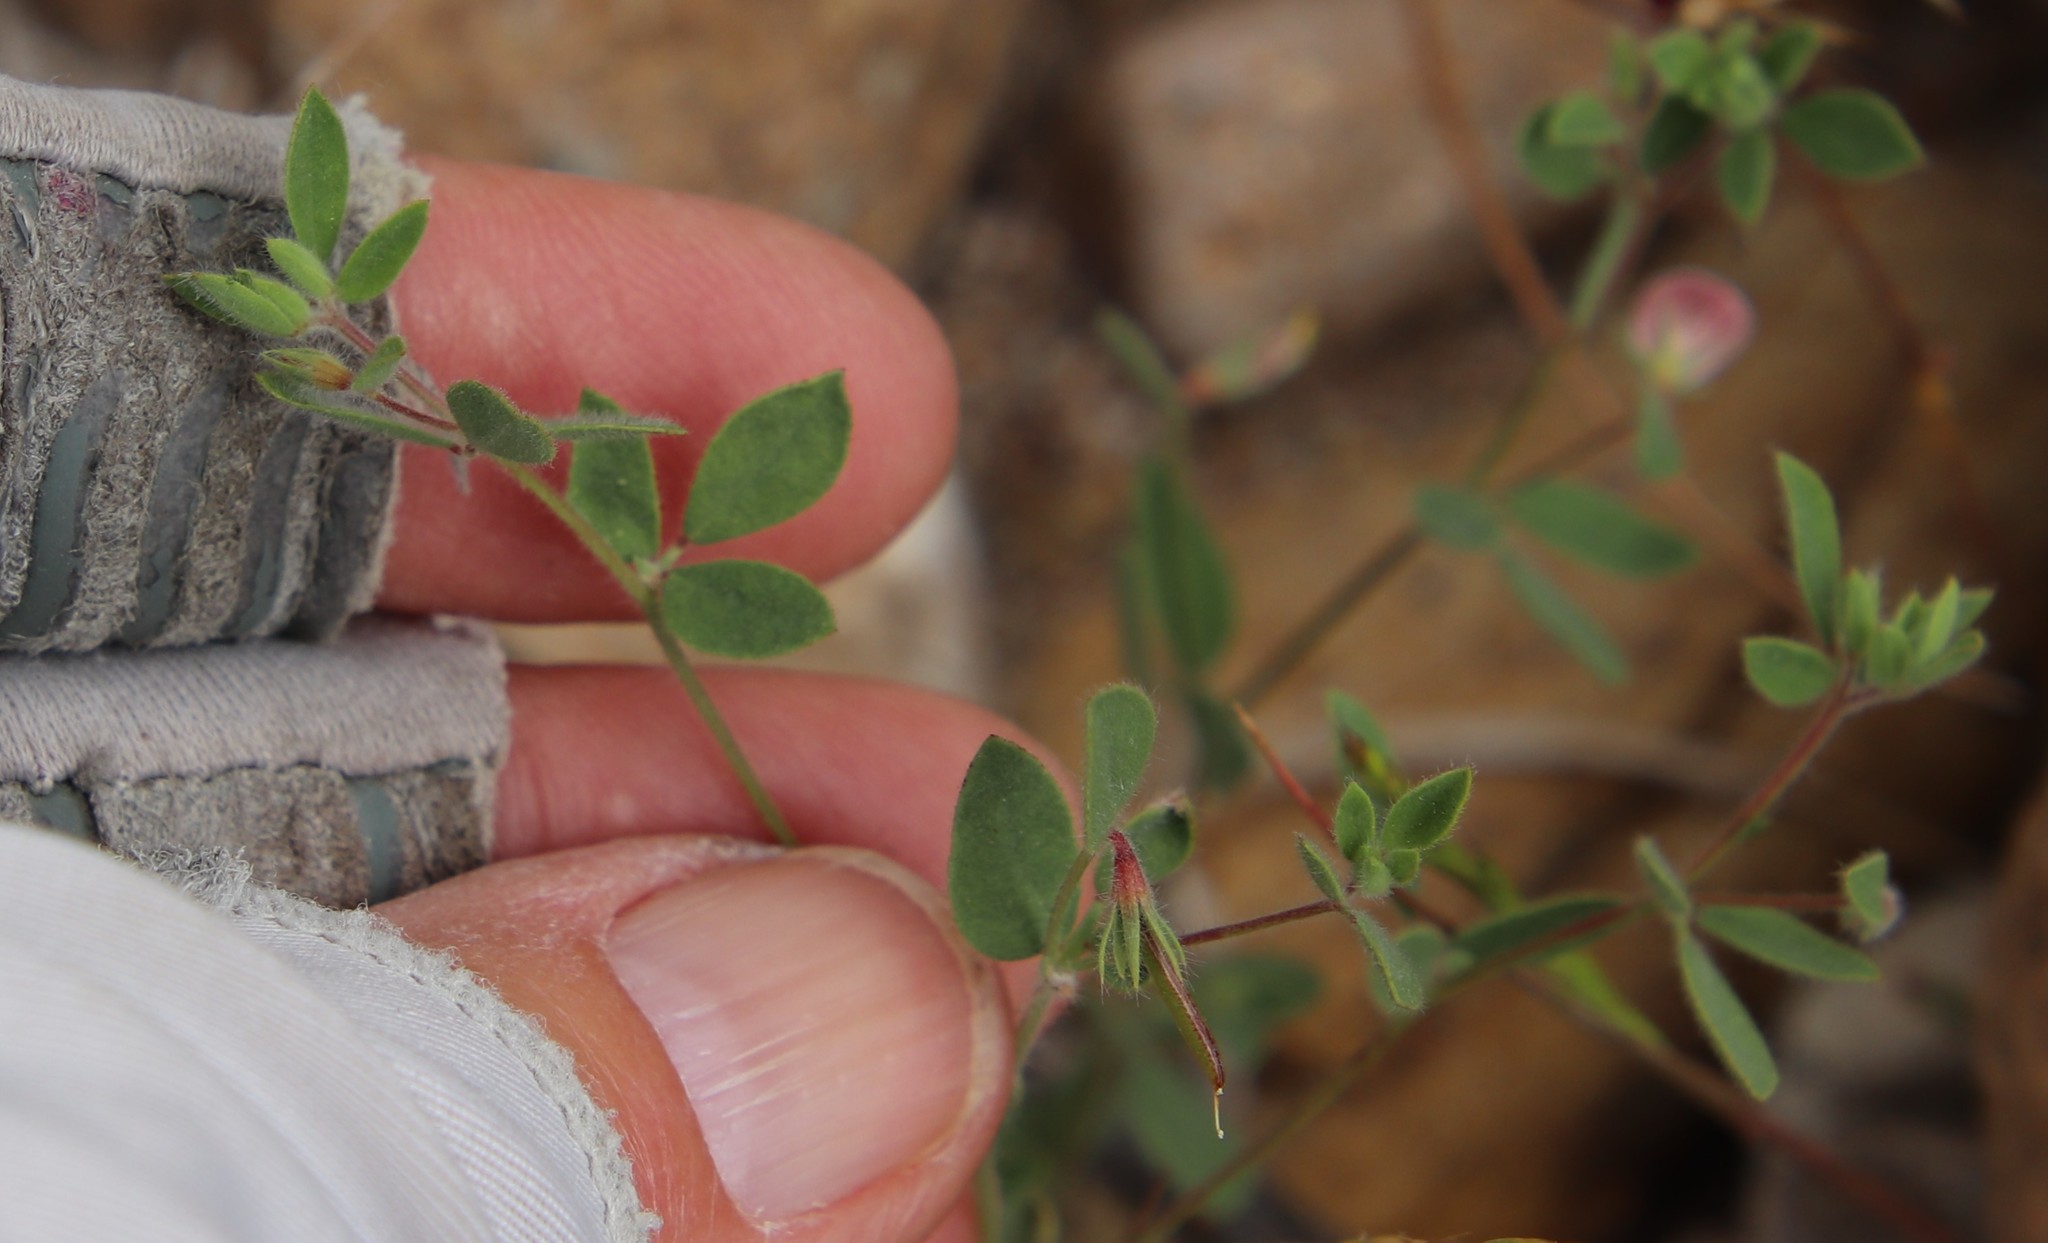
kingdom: Plantae
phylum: Tracheophyta
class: Magnoliopsida
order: Fabales
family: Fabaceae
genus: Acmispon
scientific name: Acmispon americanus
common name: American bird's-foot trefoil
